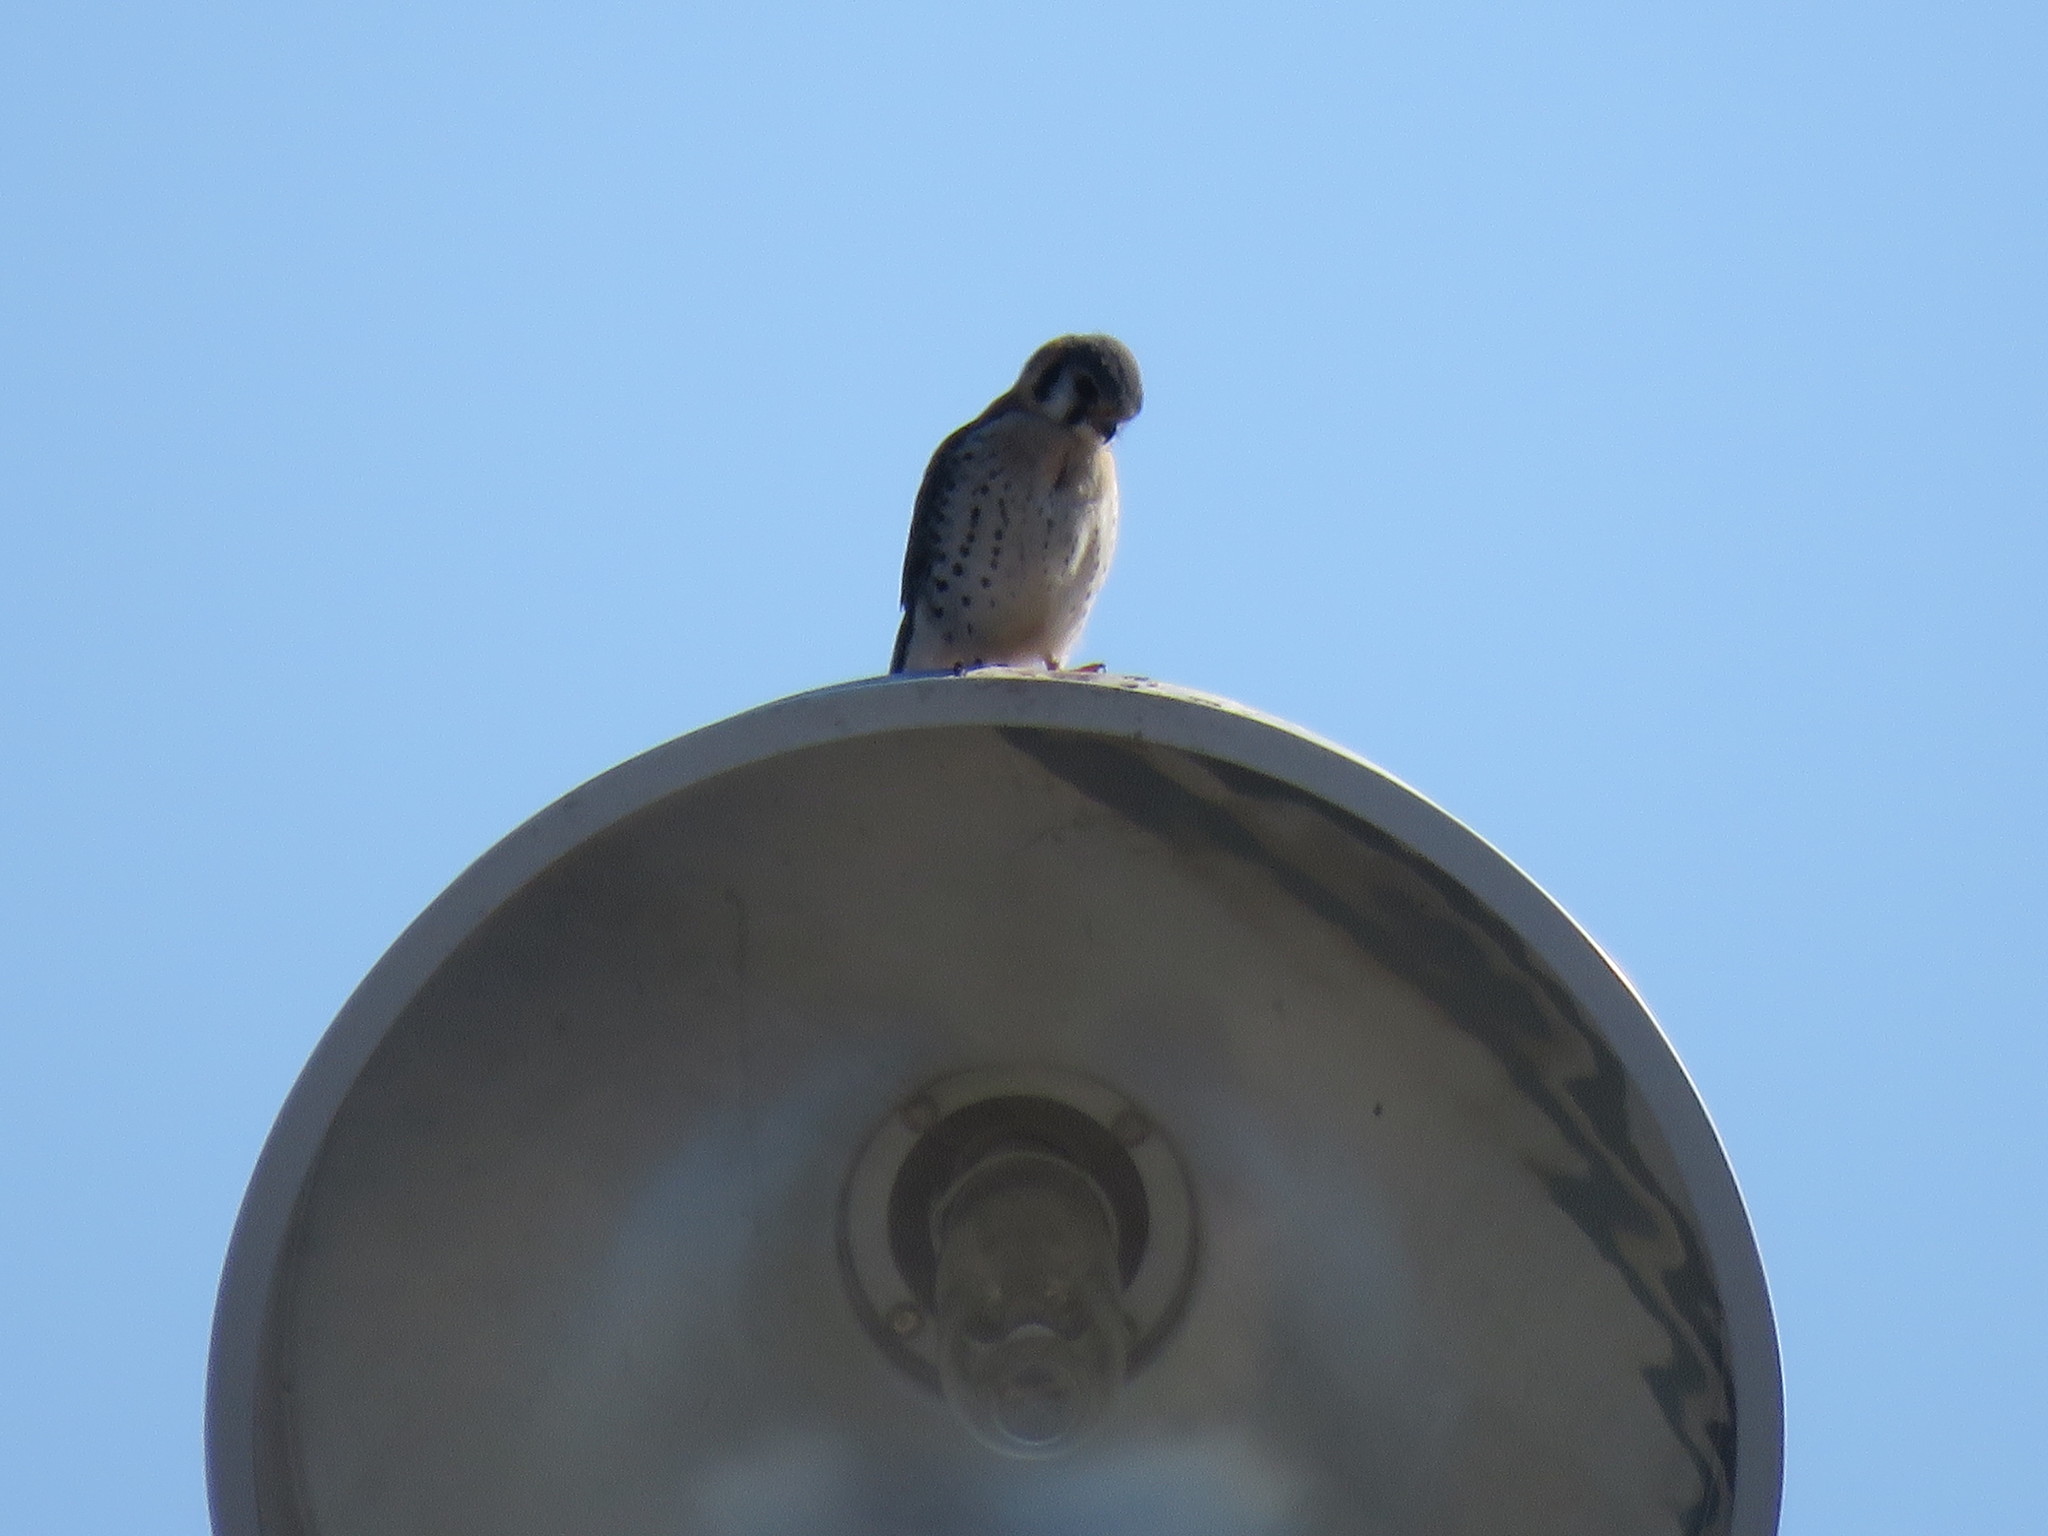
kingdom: Animalia
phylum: Chordata
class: Aves
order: Falconiformes
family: Falconidae
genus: Falco
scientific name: Falco sparverius
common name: American kestrel
